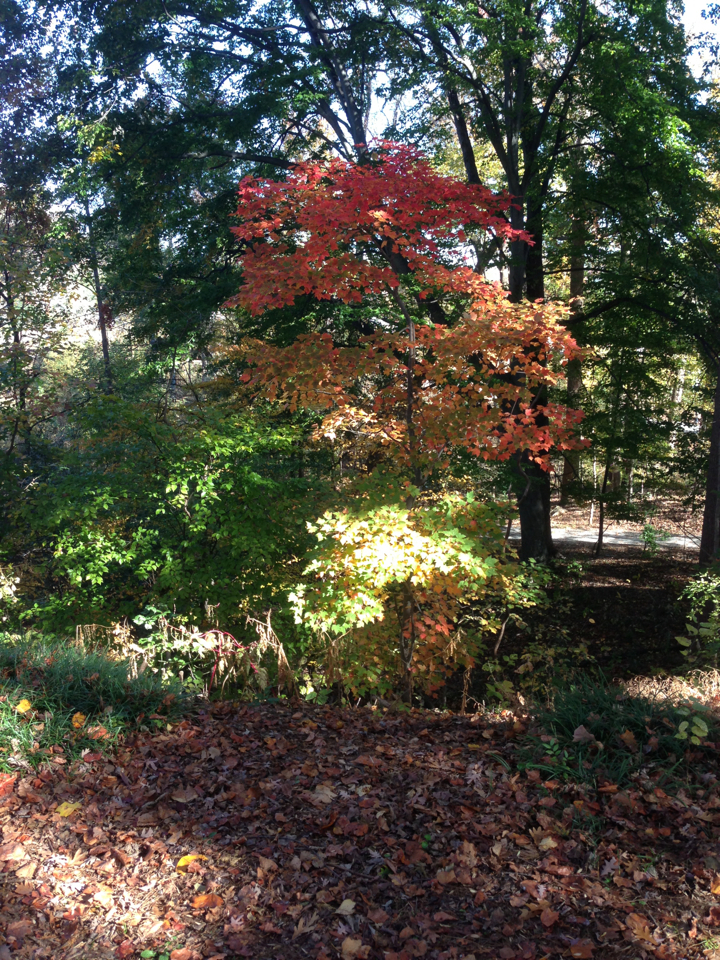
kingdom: Plantae
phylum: Tracheophyta
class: Magnoliopsida
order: Sapindales
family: Sapindaceae
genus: Acer
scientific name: Acer rubrum
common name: Red maple
